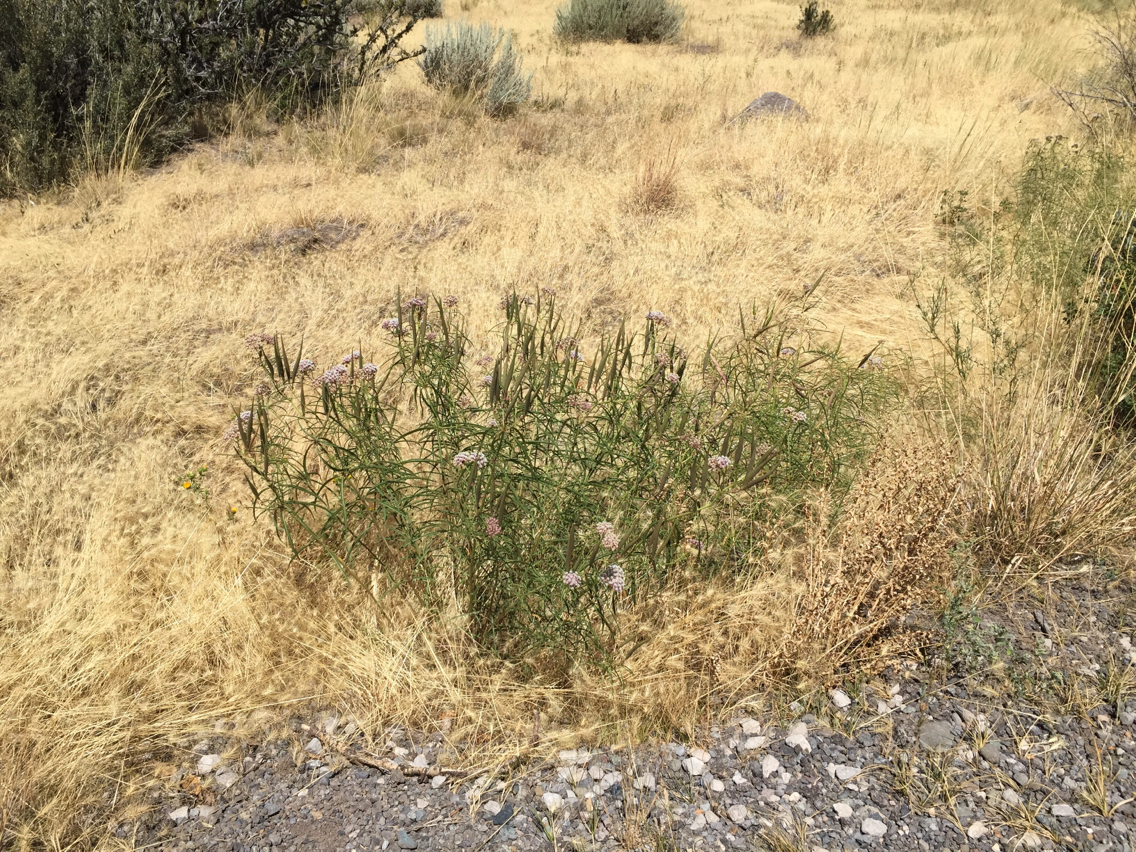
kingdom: Plantae
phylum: Tracheophyta
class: Magnoliopsida
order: Gentianales
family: Apocynaceae
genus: Asclepias
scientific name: Asclepias fascicularis
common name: Mexican milkweed
